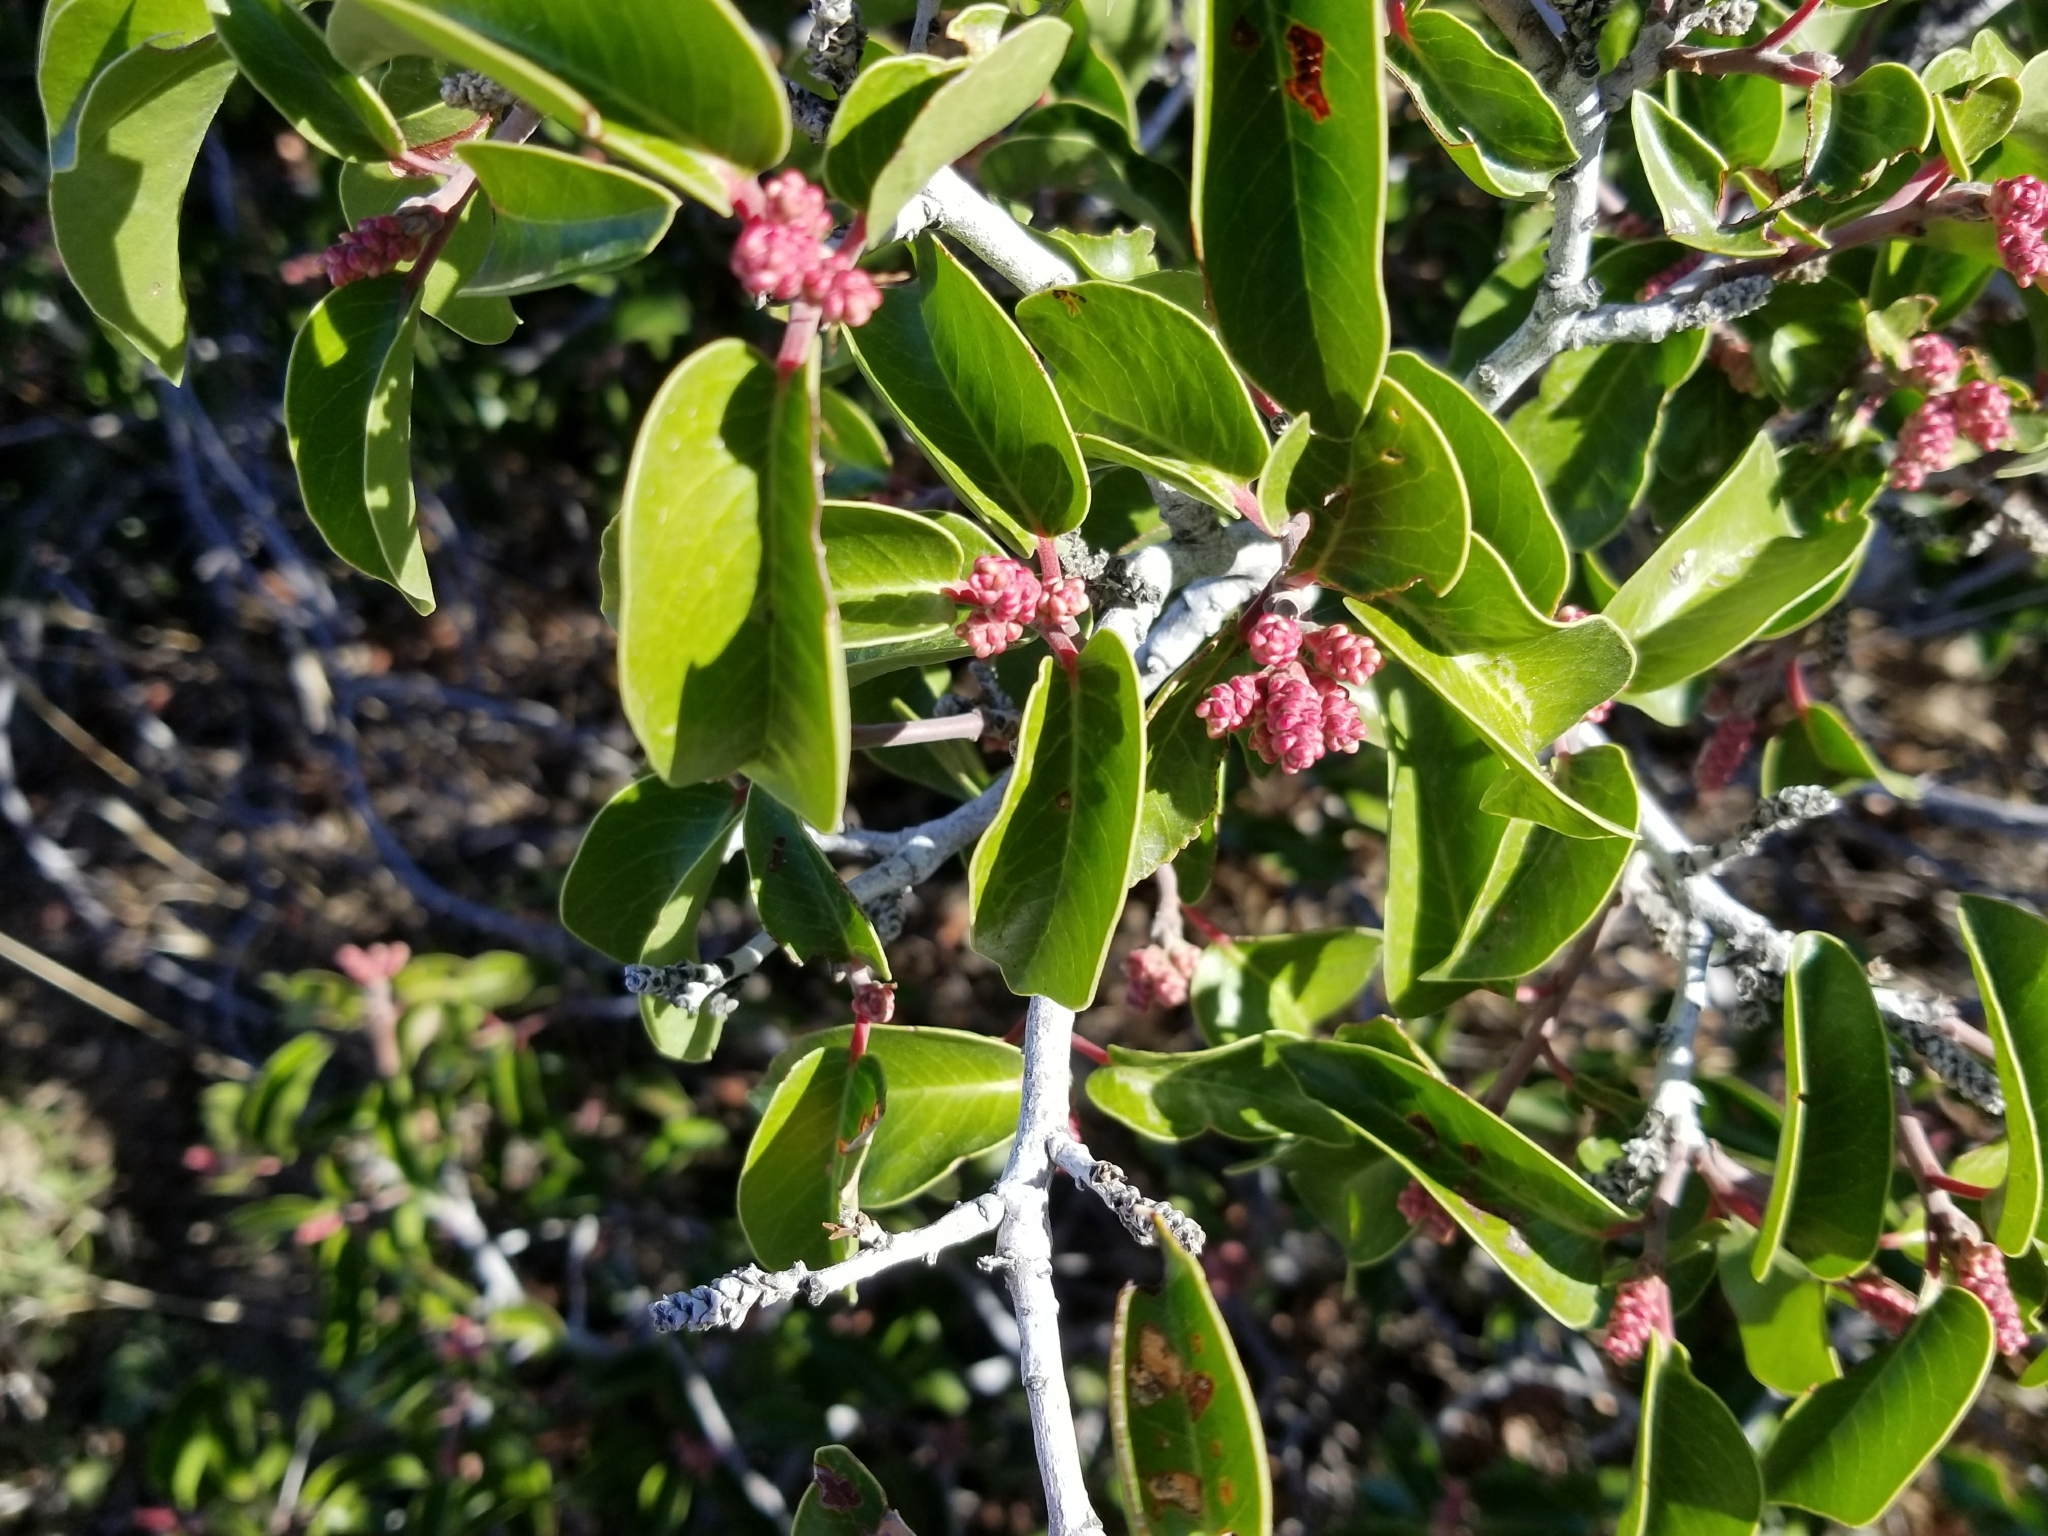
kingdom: Plantae
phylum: Tracheophyta
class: Magnoliopsida
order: Sapindales
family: Anacardiaceae
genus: Rhus
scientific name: Rhus ovata
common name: Sugar sumac
